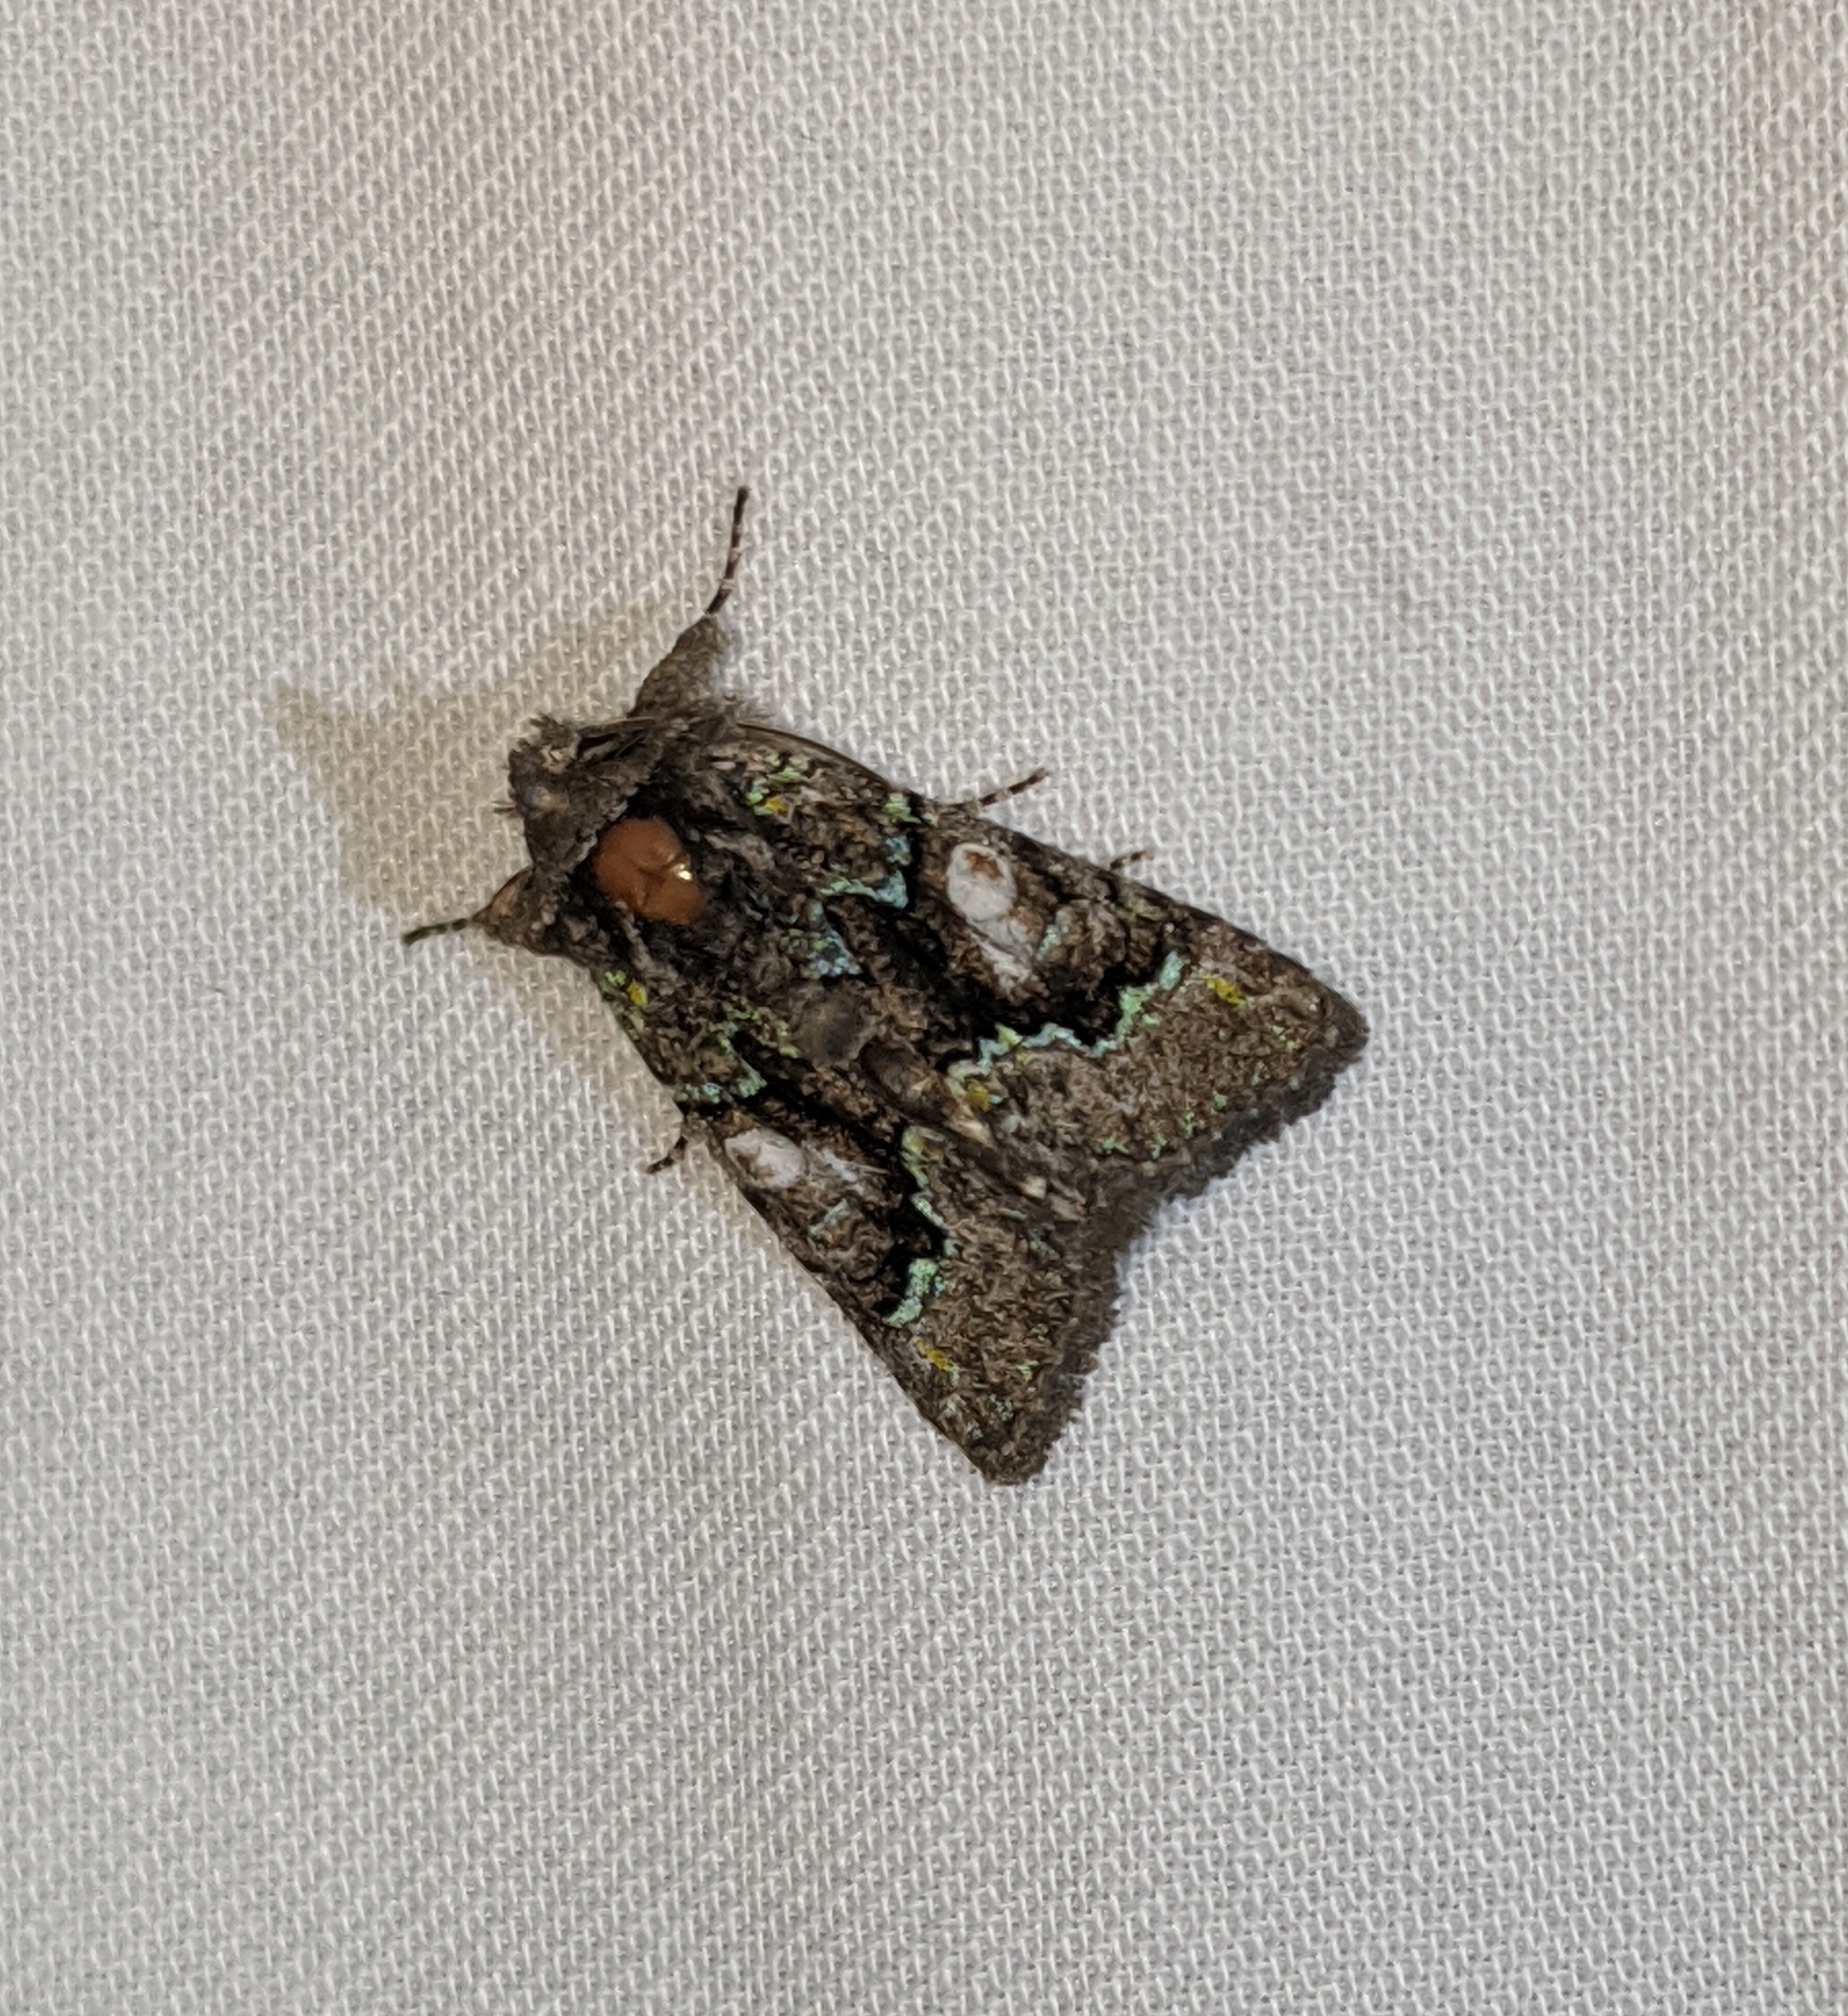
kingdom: Animalia
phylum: Arthropoda
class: Insecta
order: Lepidoptera
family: Noctuidae
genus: Behrensia
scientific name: Behrensia conchiformis
